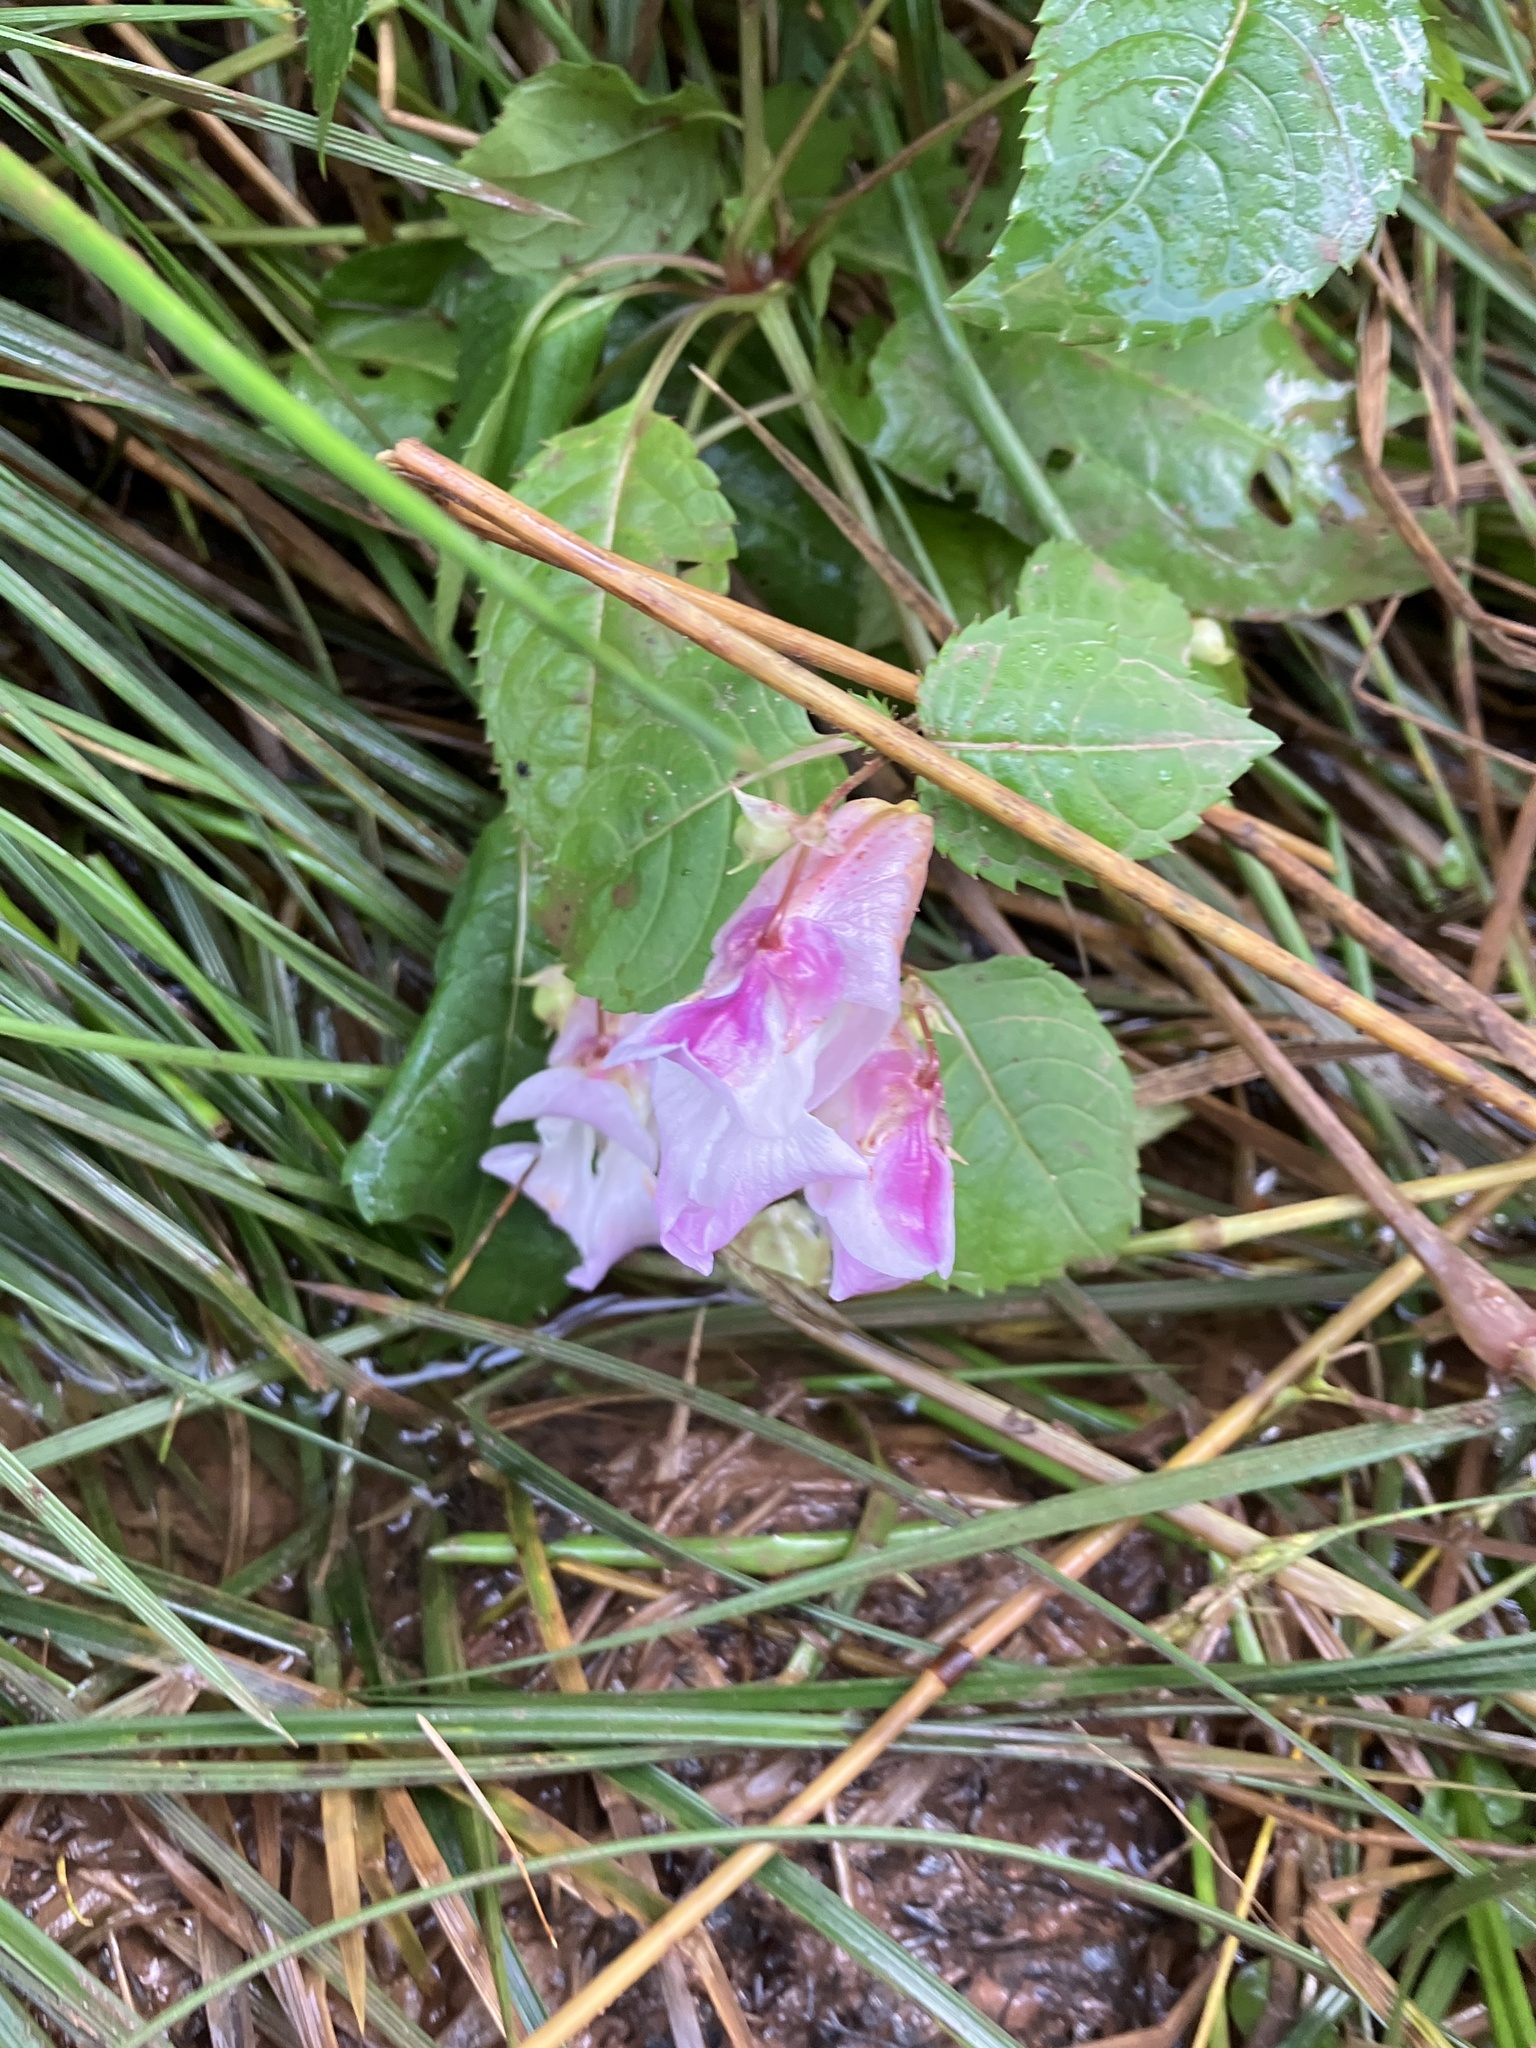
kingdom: Plantae
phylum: Tracheophyta
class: Magnoliopsida
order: Ericales
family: Balsaminaceae
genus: Impatiens
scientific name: Impatiens glandulifera
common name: Himalayan balsam
